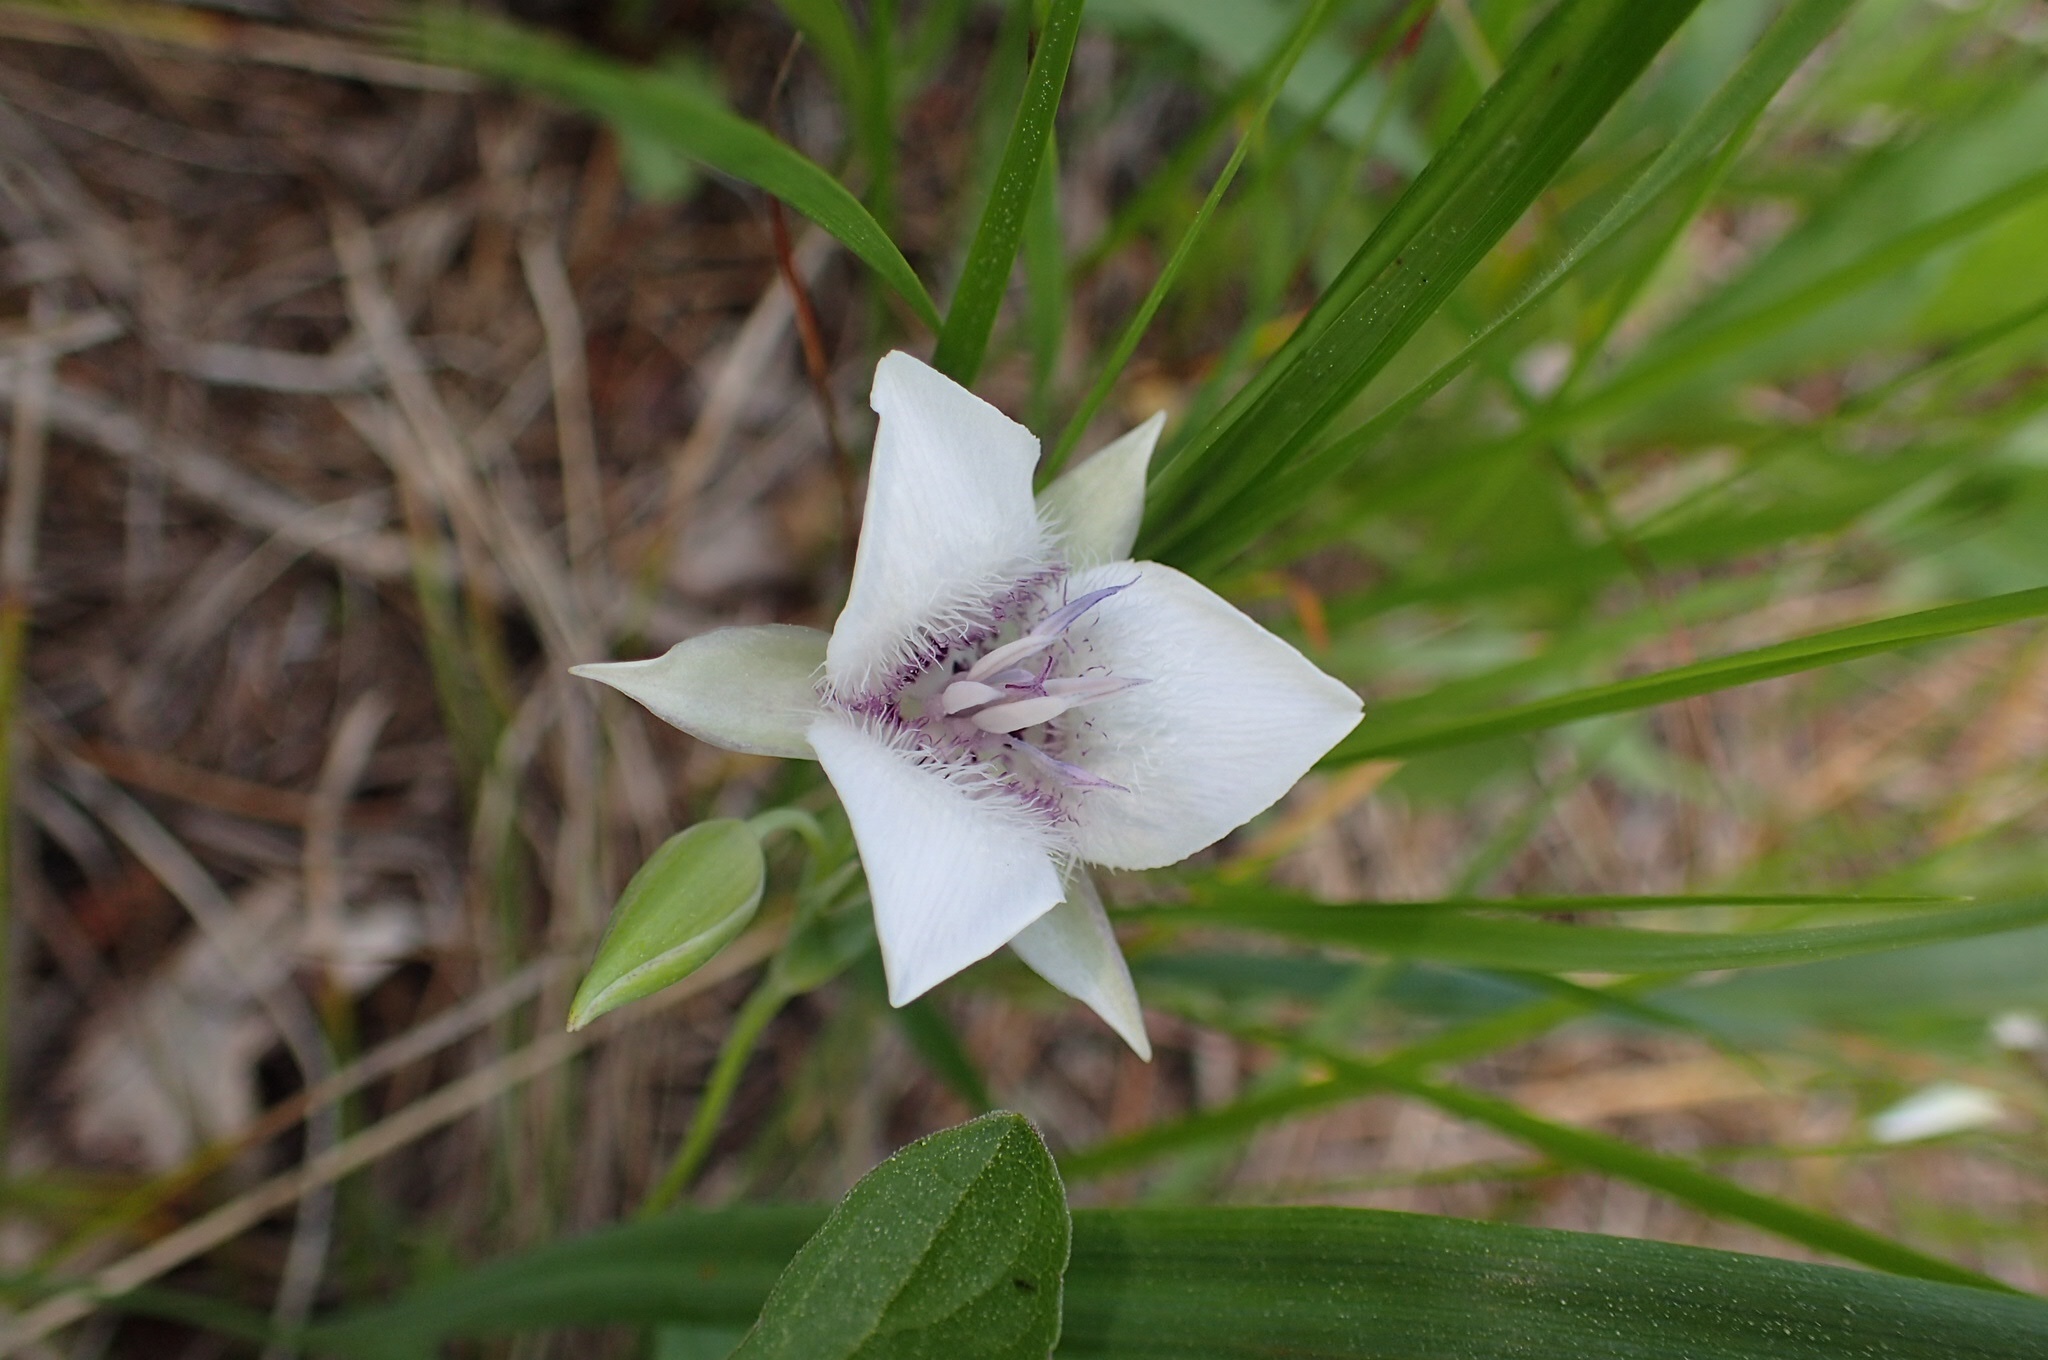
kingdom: Plantae
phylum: Tracheophyta
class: Liliopsida
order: Liliales
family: Liliaceae
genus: Calochortus
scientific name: Calochortus elegans
